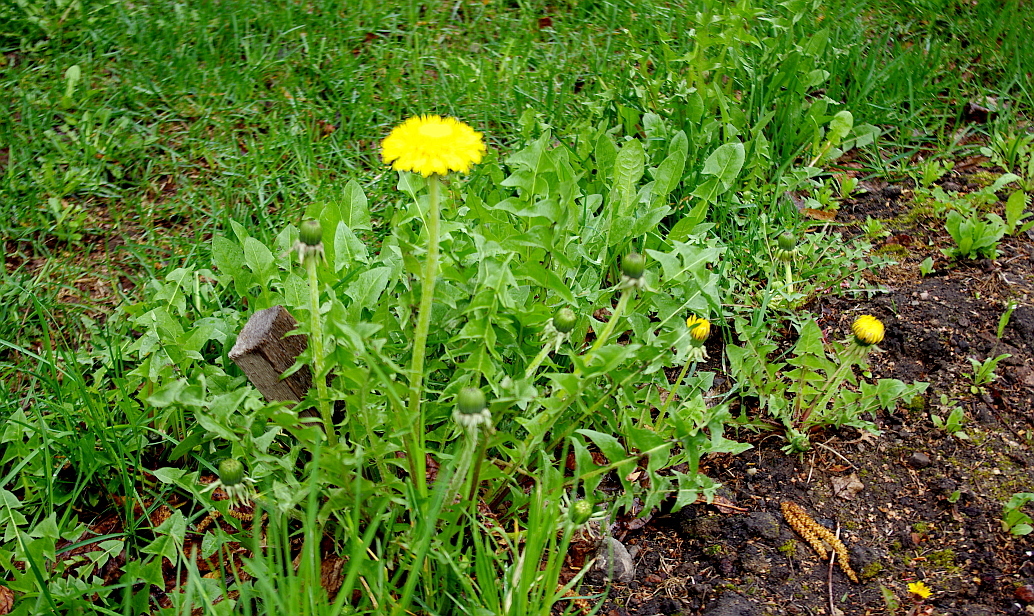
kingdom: Plantae
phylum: Tracheophyta
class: Magnoliopsida
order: Asterales
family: Asteraceae
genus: Taraxacum
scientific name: Taraxacum officinale
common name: Common dandelion
